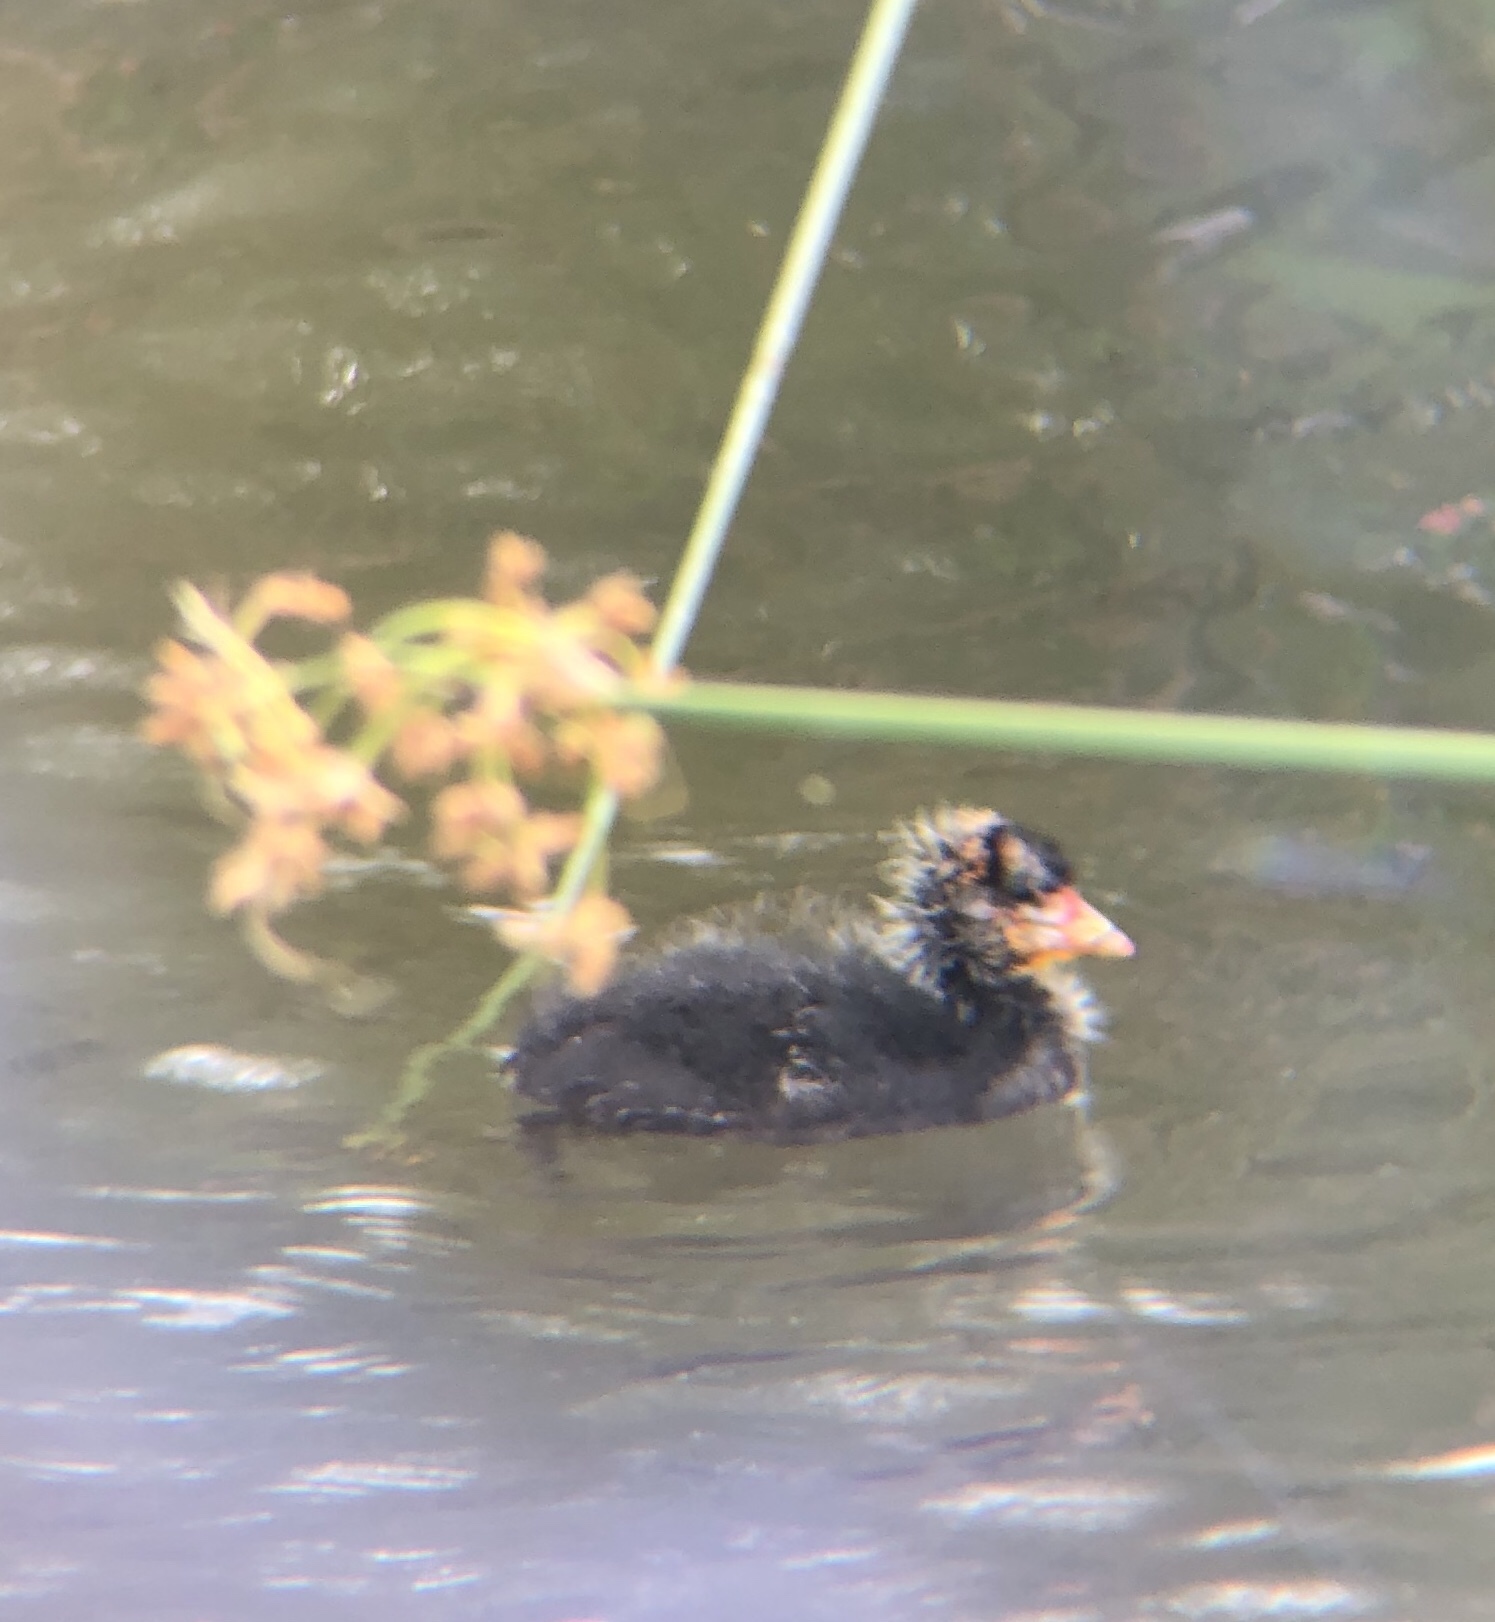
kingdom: Animalia
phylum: Chordata
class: Aves
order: Gruiformes
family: Rallidae
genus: Fulica
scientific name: Fulica americana
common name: American coot
